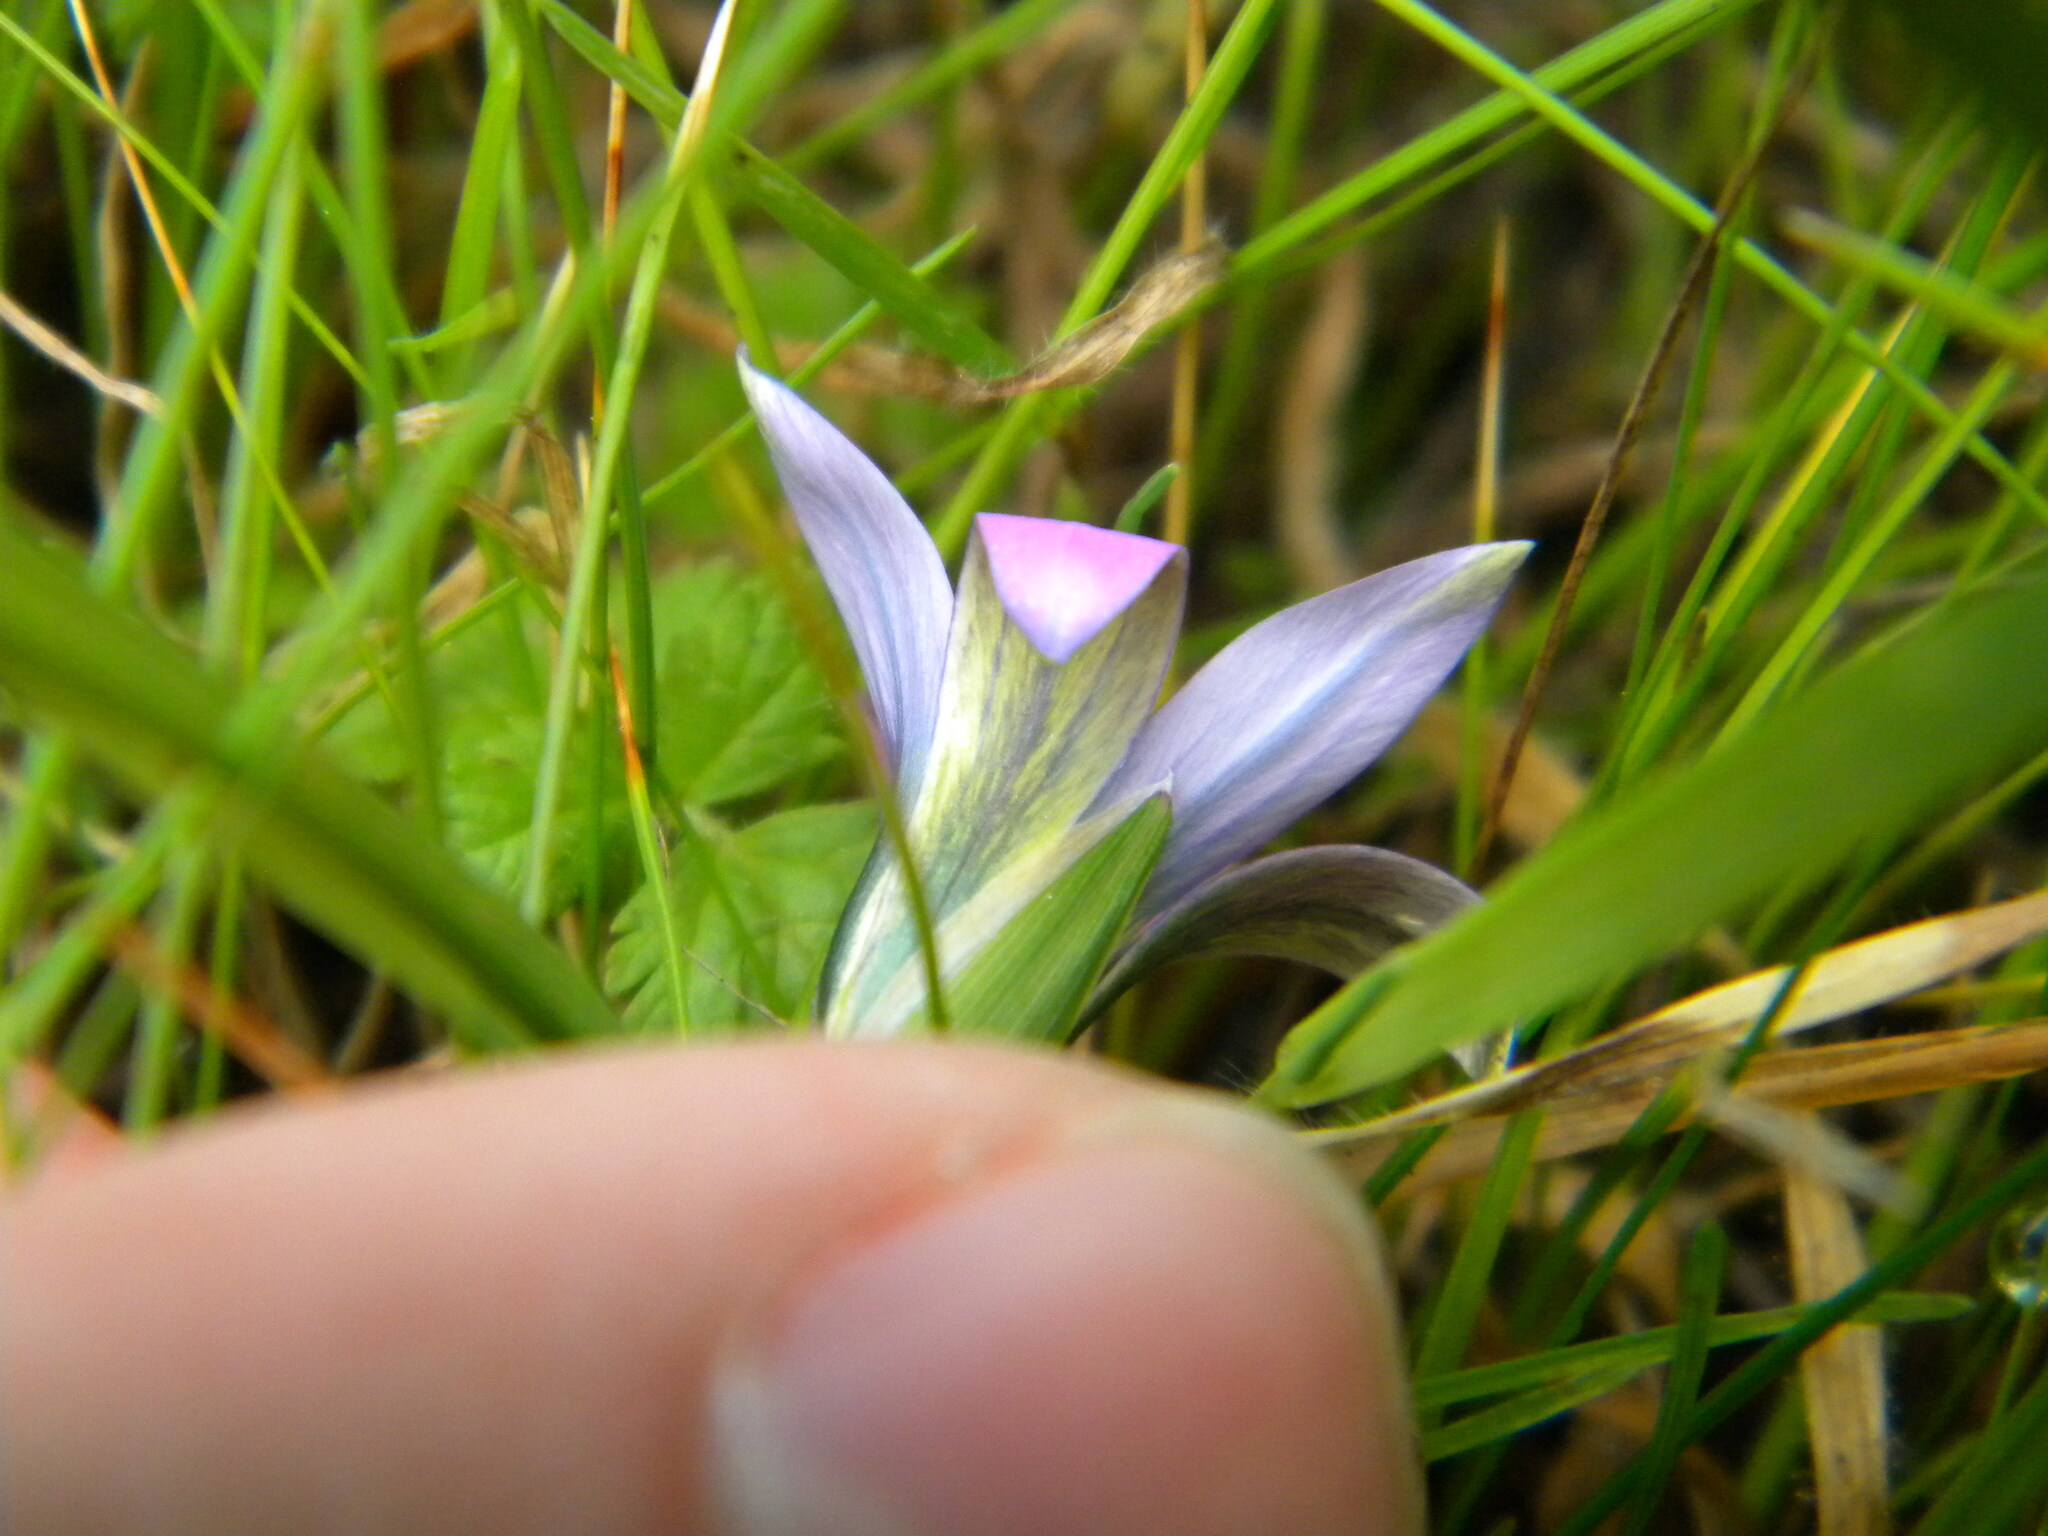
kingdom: Plantae
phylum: Tracheophyta
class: Liliopsida
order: Asparagales
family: Iridaceae
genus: Romulea
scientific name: Romulea rosea
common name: Oniongrass
